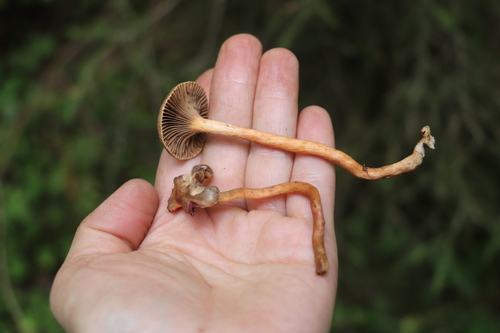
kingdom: Fungi
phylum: Basidiomycota
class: Agaricomycetes
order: Boletales
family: Gomphidiaceae
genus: Chroogomphus
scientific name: Chroogomphus rutilus
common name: Copper spike
